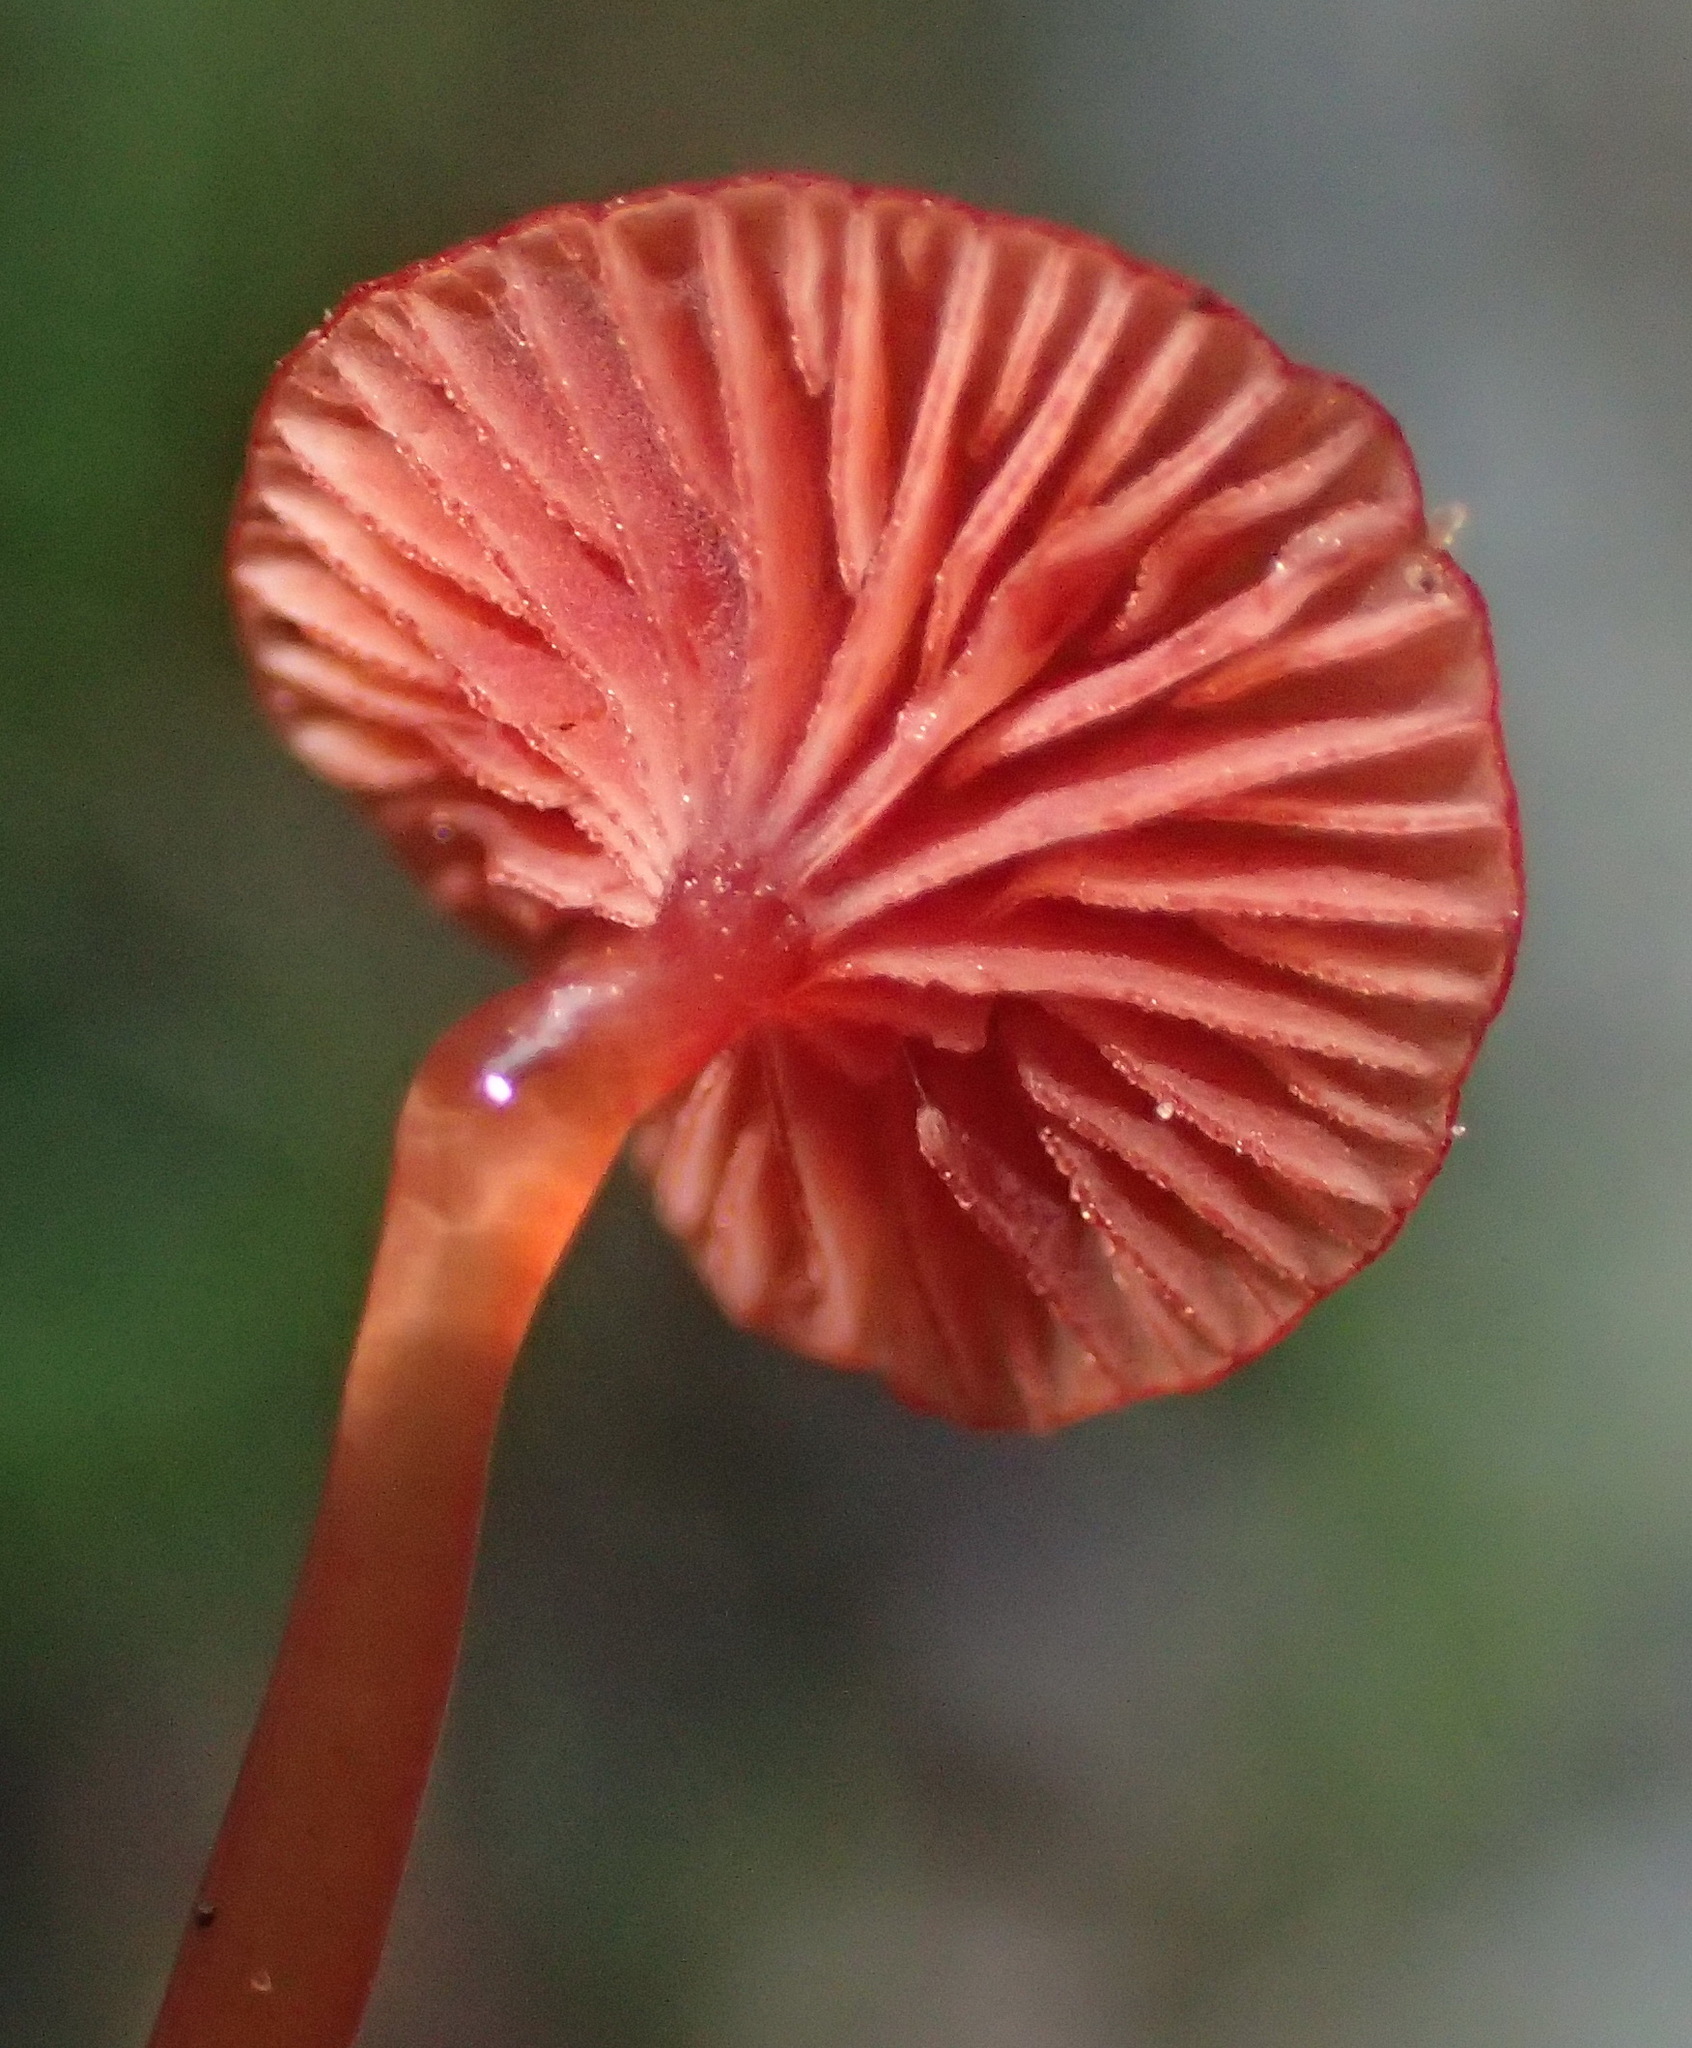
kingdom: Fungi
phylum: Basidiomycota
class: Agaricomycetes
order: Agaricales
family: Mycenaceae
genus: Cruentomycena
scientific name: Cruentomycena viscidocruenta
